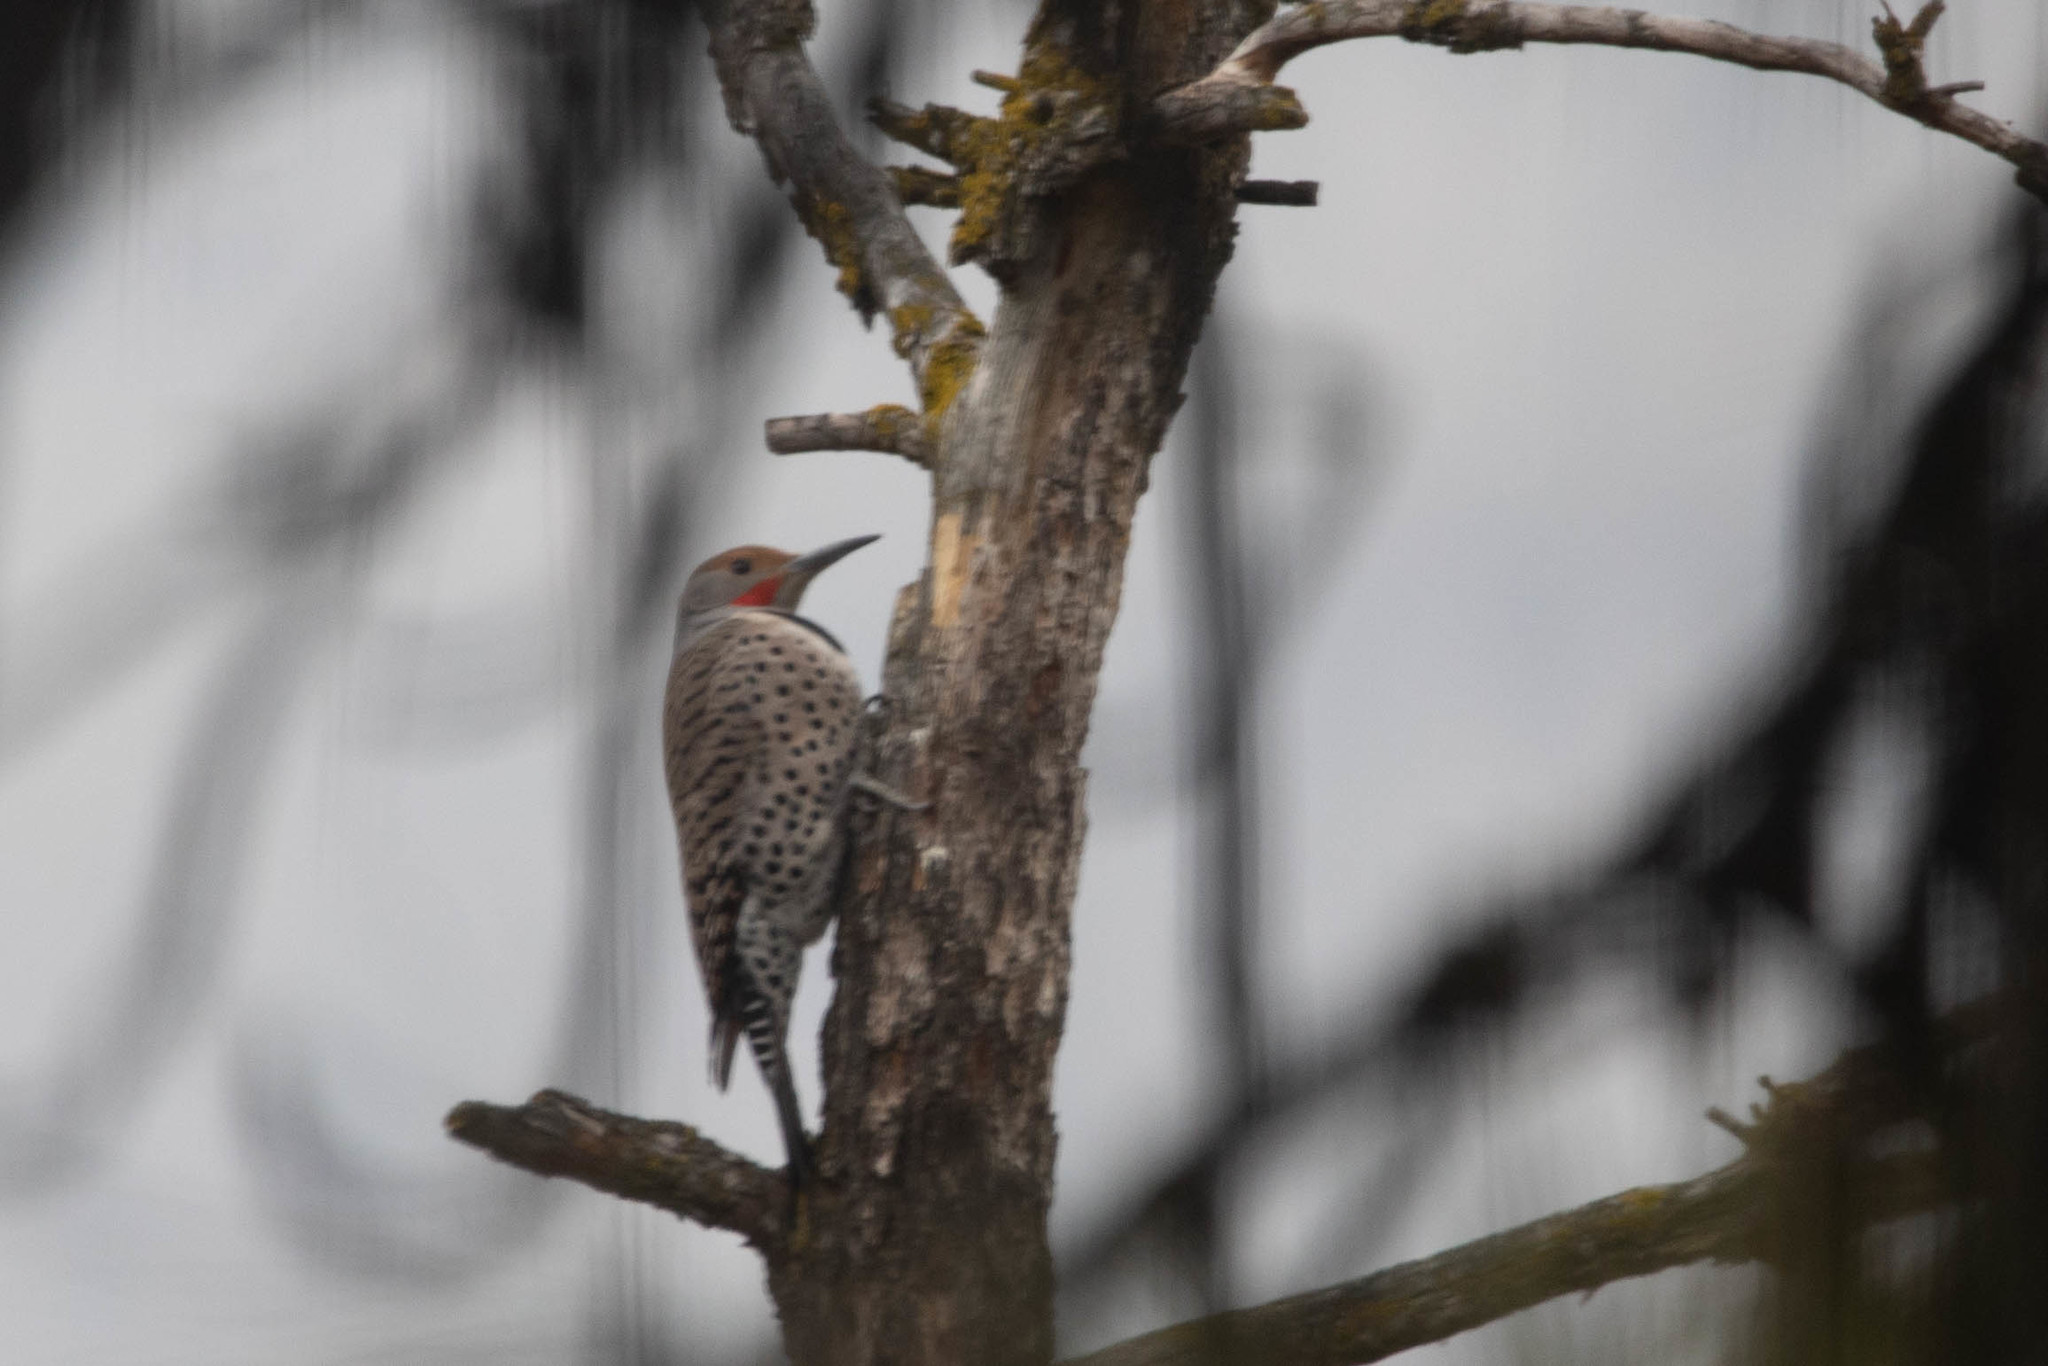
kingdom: Animalia
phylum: Chordata
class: Aves
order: Piciformes
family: Picidae
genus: Colaptes
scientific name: Colaptes auratus
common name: Northern flicker
